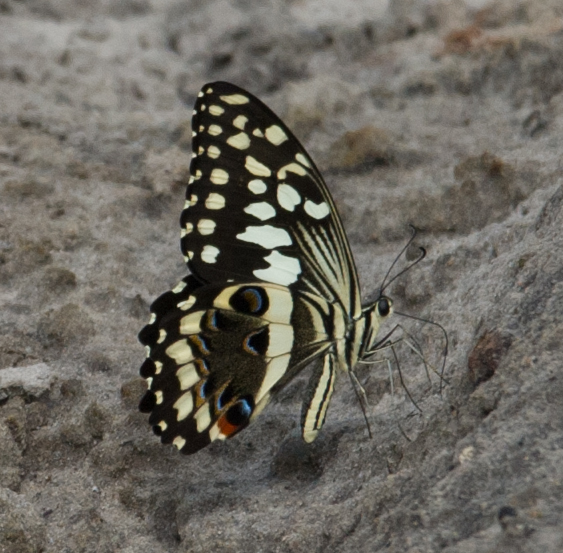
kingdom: Animalia
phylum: Arthropoda
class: Insecta
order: Lepidoptera
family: Papilionidae
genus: Papilio
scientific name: Papilio demodocus
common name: Christmas butterfly
